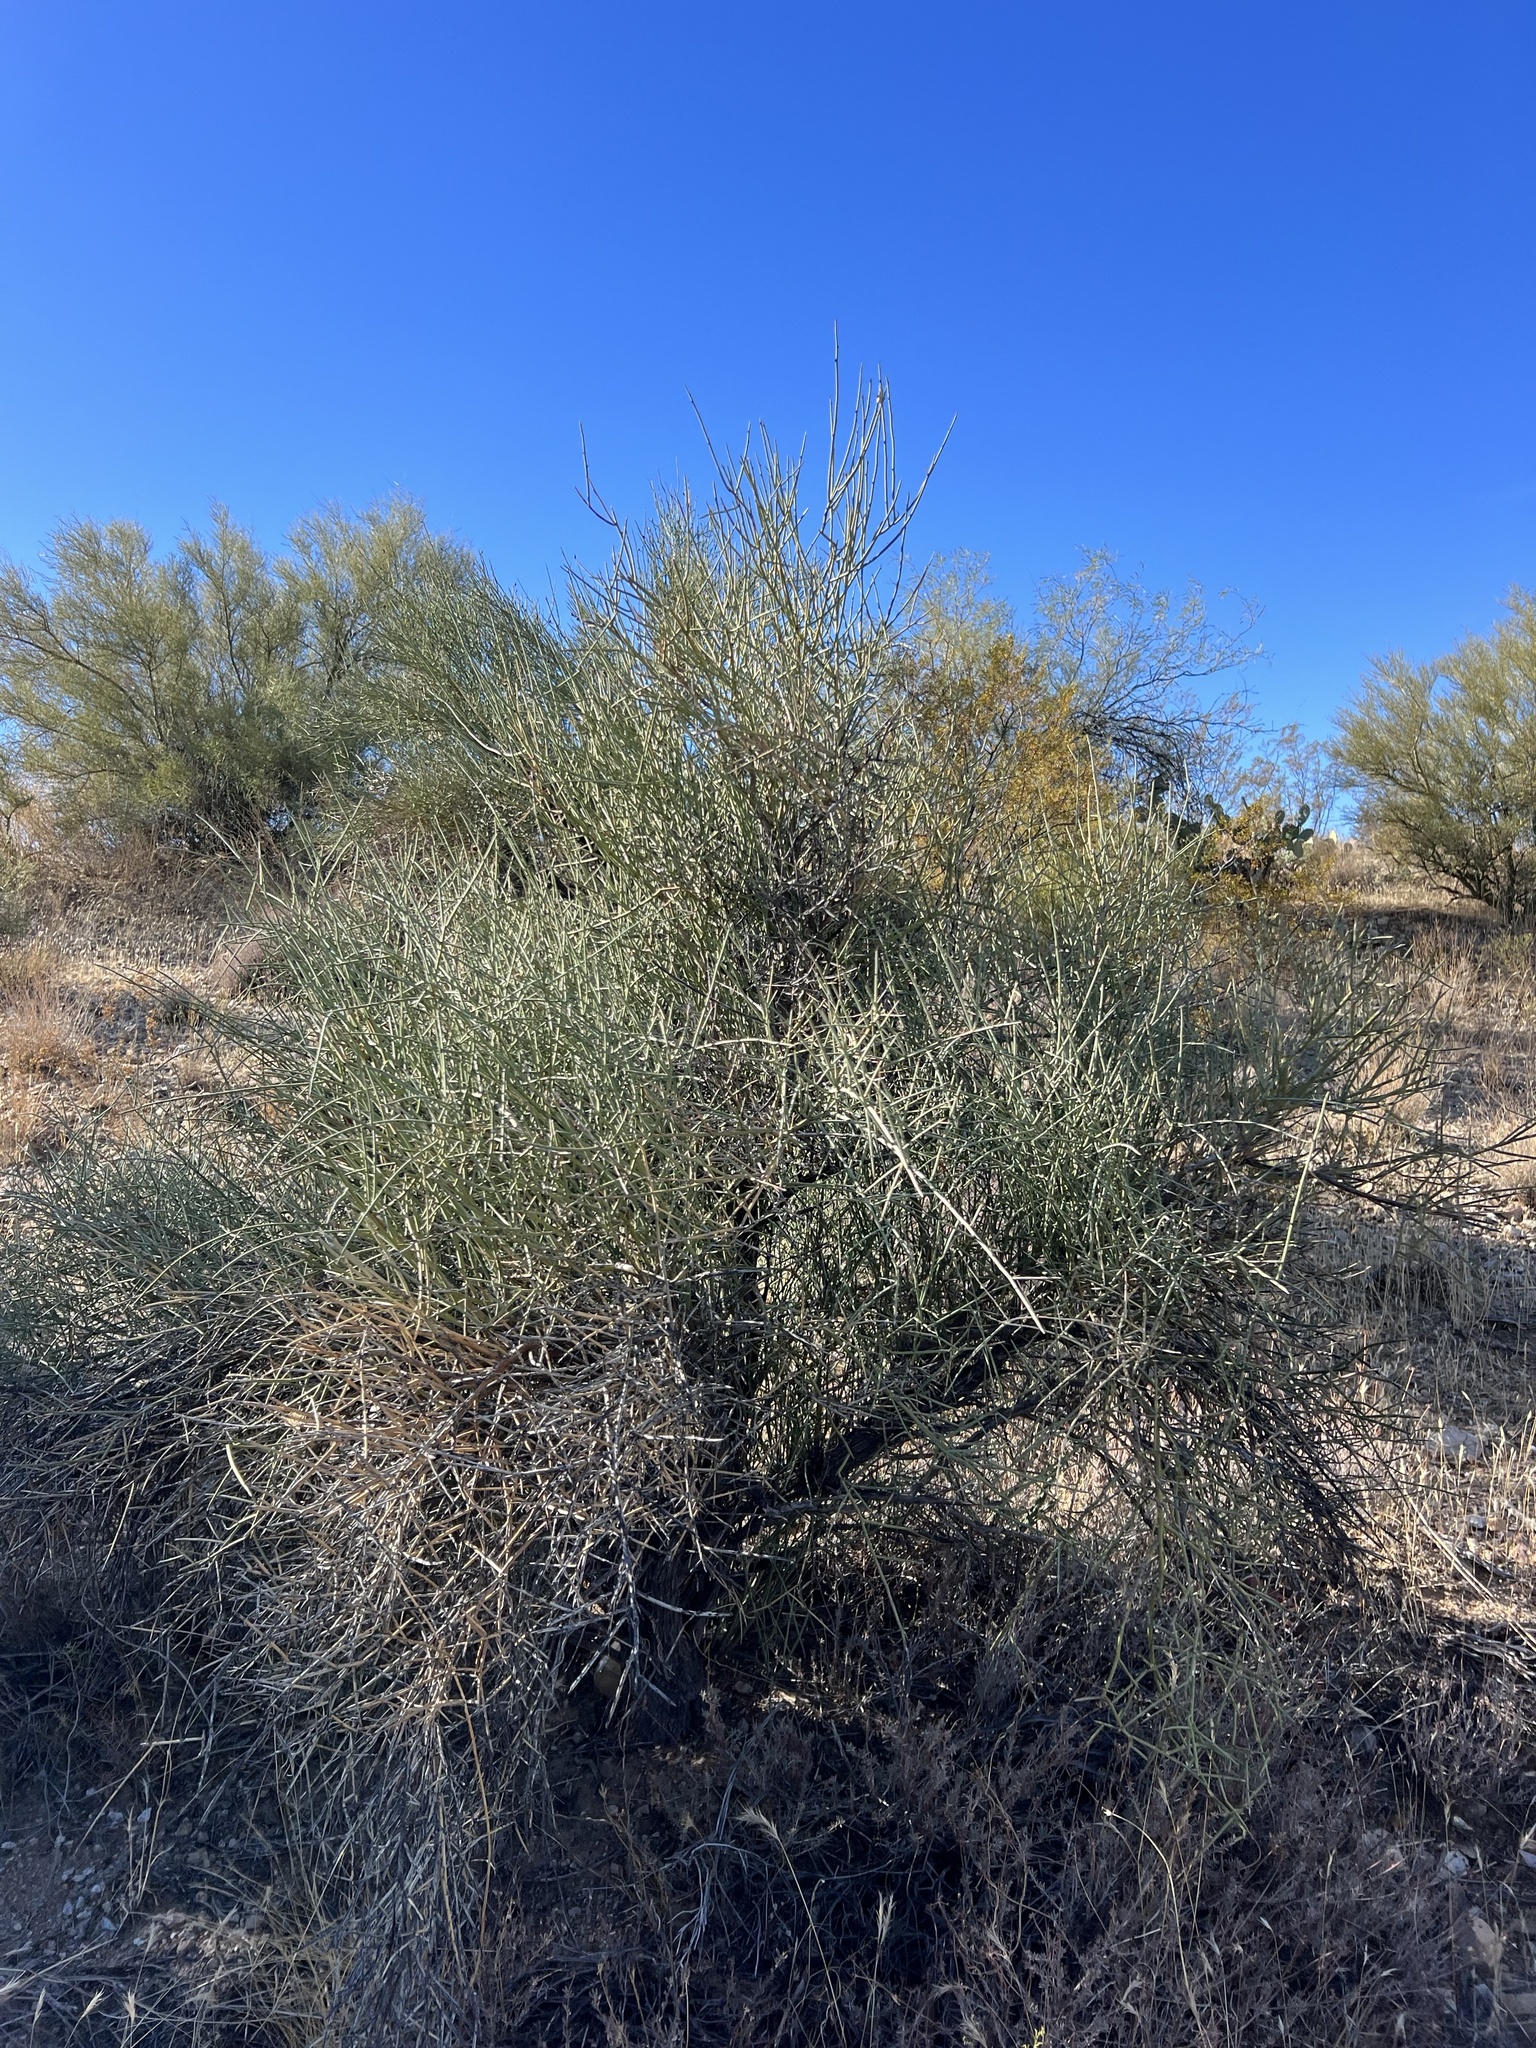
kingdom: Plantae
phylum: Tracheophyta
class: Magnoliopsida
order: Celastrales
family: Celastraceae
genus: Canotia
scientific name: Canotia holacantha
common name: Crucifixion thorns
